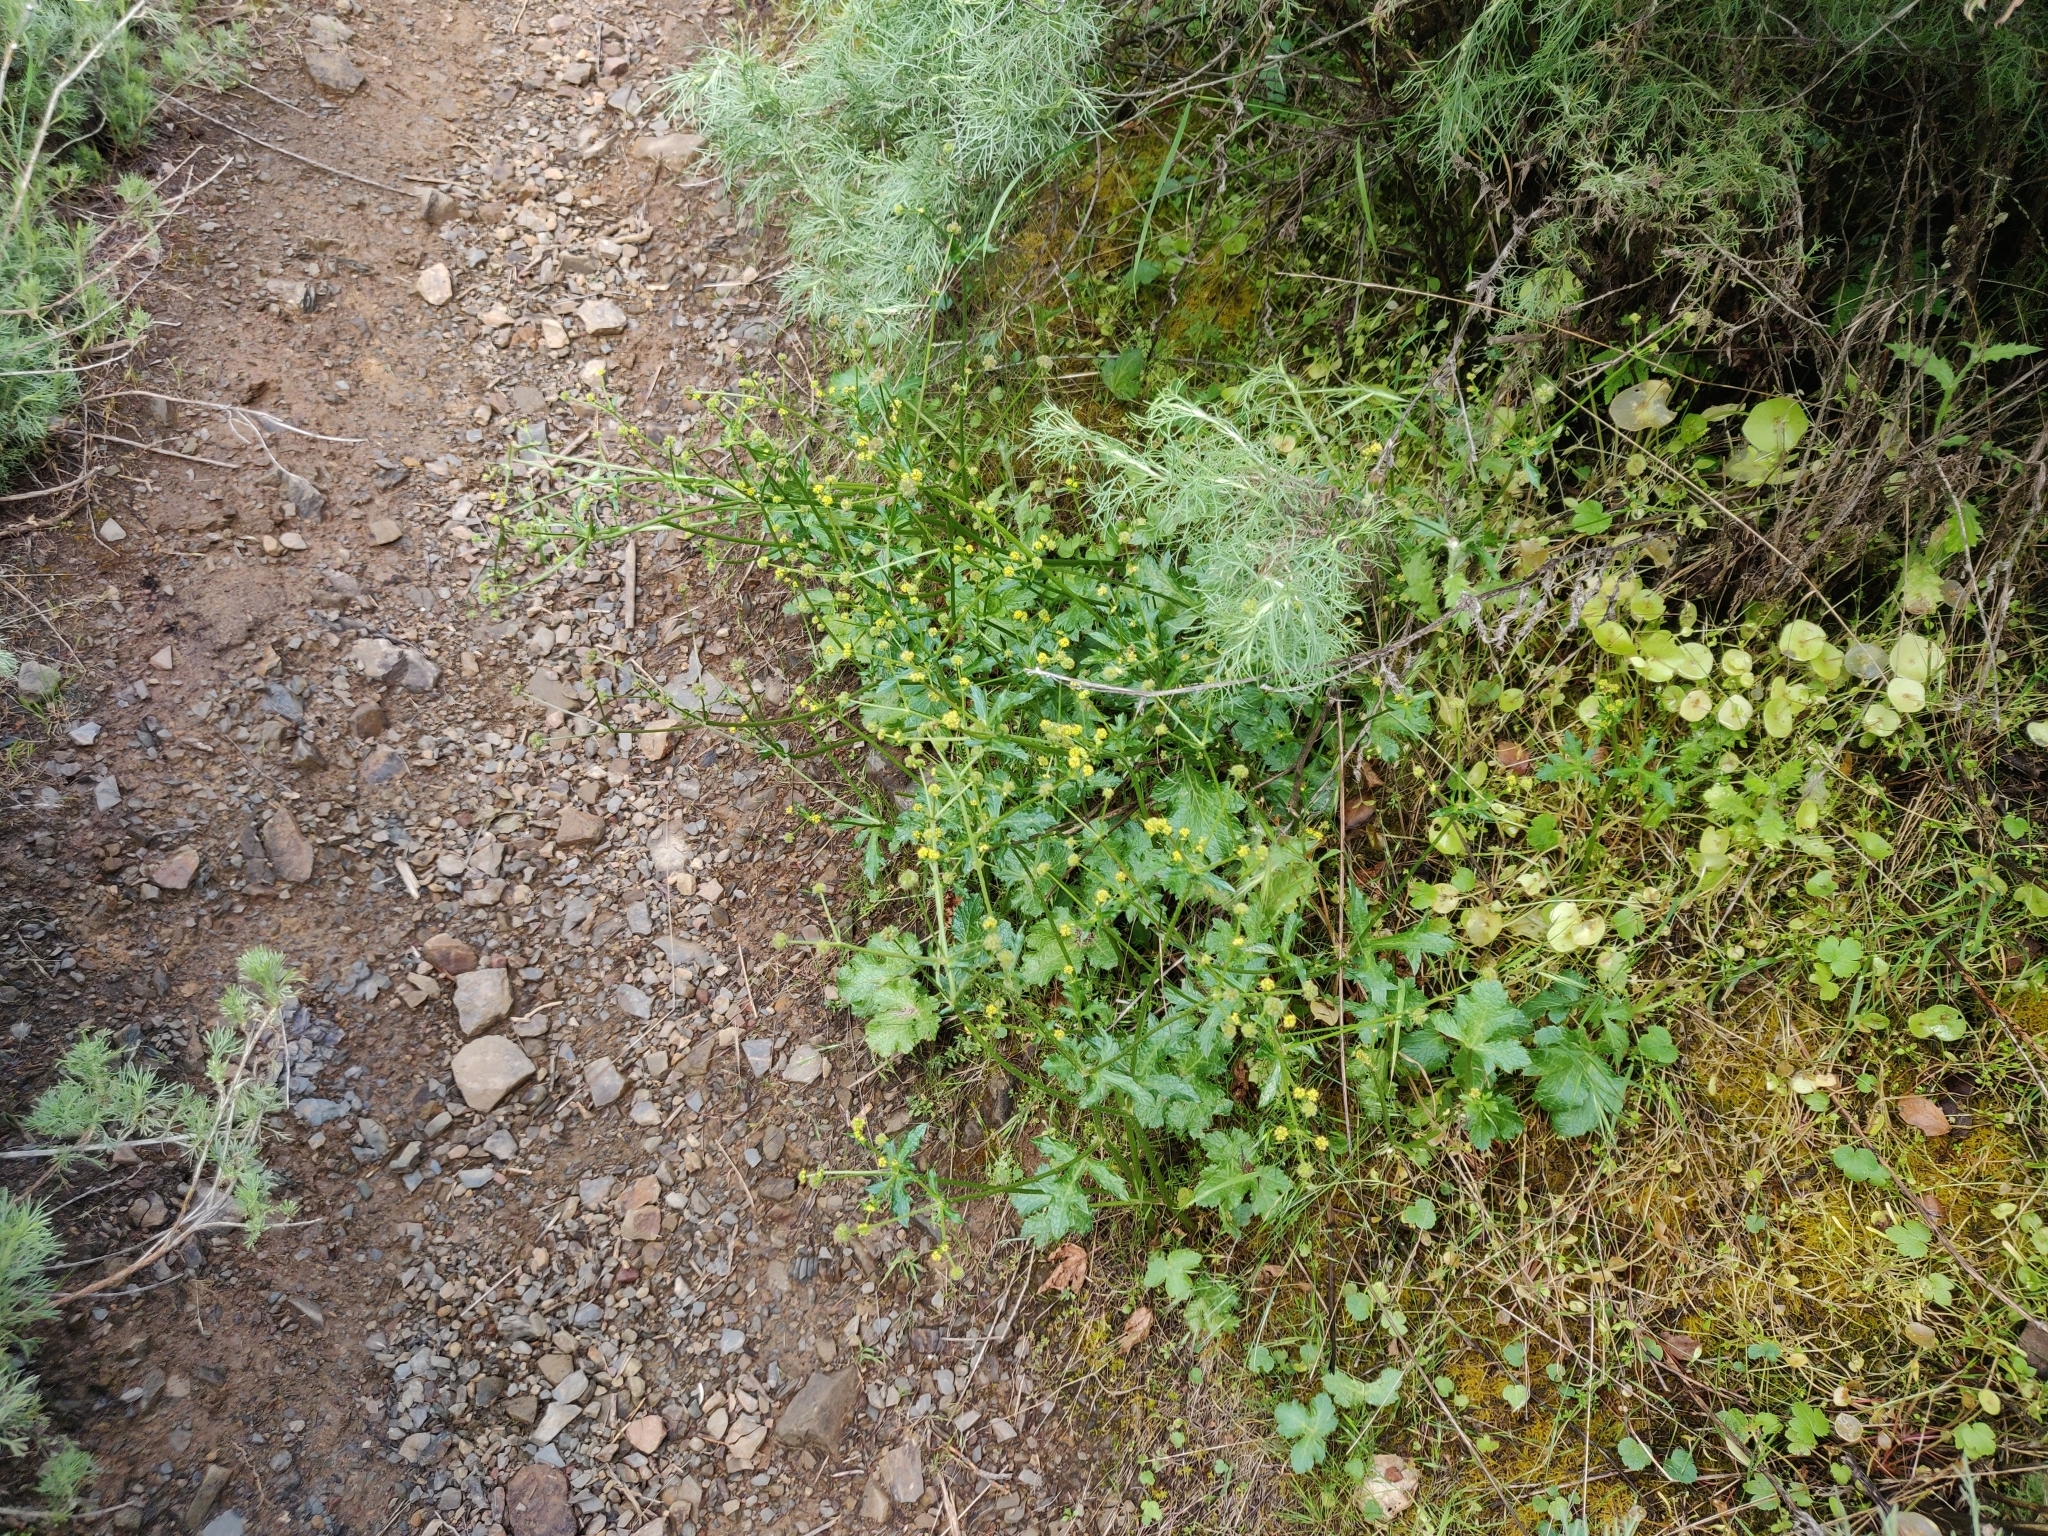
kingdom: Plantae
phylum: Tracheophyta
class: Magnoliopsida
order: Apiales
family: Apiaceae
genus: Sanicula
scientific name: Sanicula crassicaulis
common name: Western snakeroot
